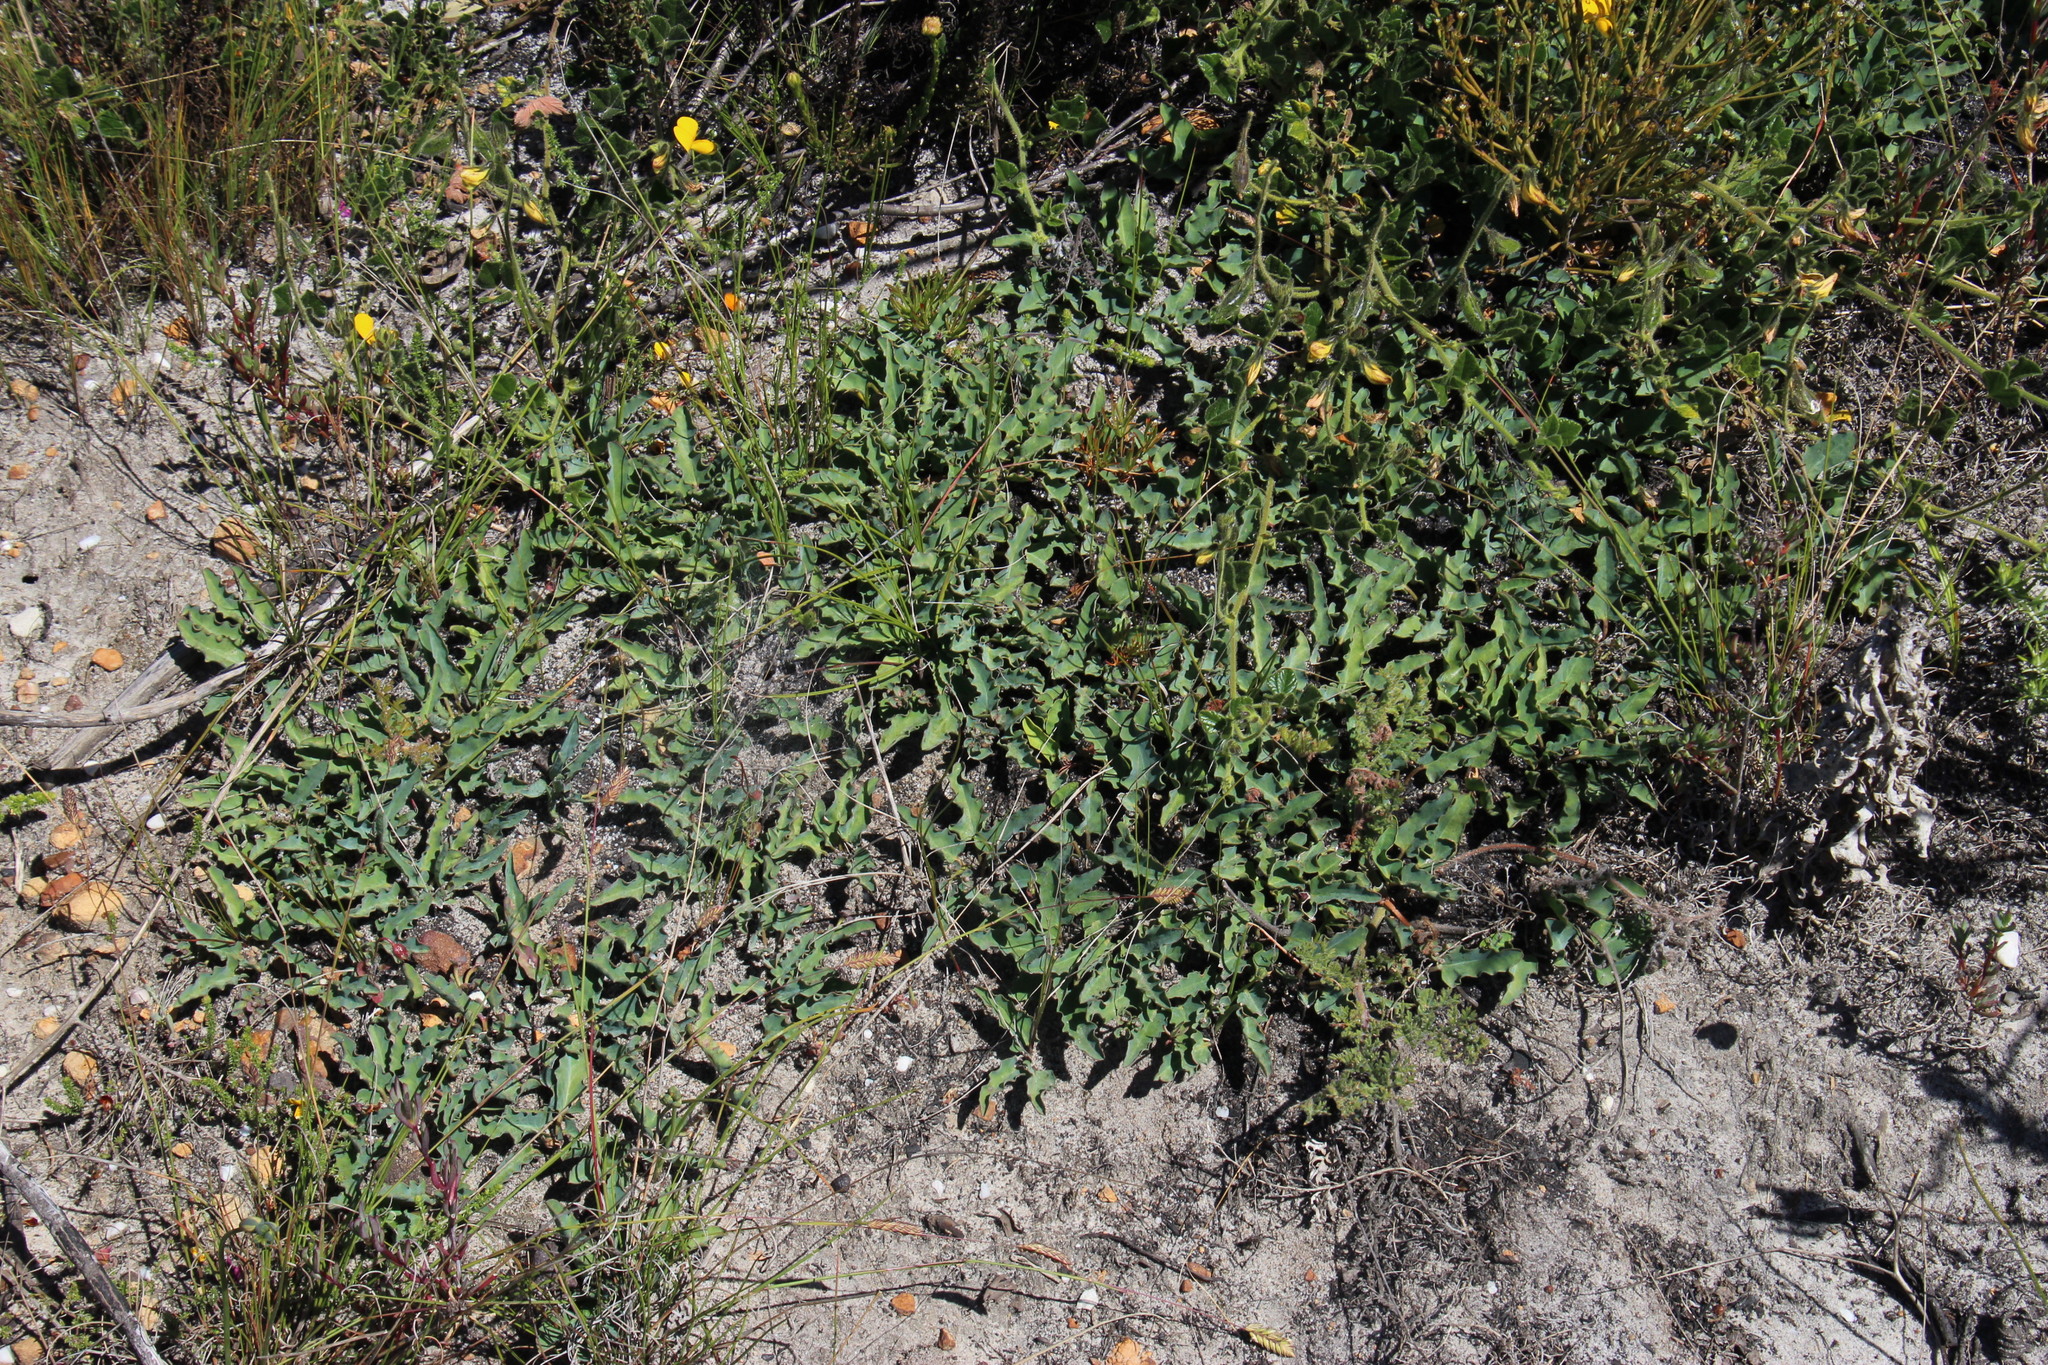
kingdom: Plantae
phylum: Tracheophyta
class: Magnoliopsida
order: Malpighiales
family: Euphorbiaceae
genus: Euphorbia
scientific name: Euphorbia tuberosa
